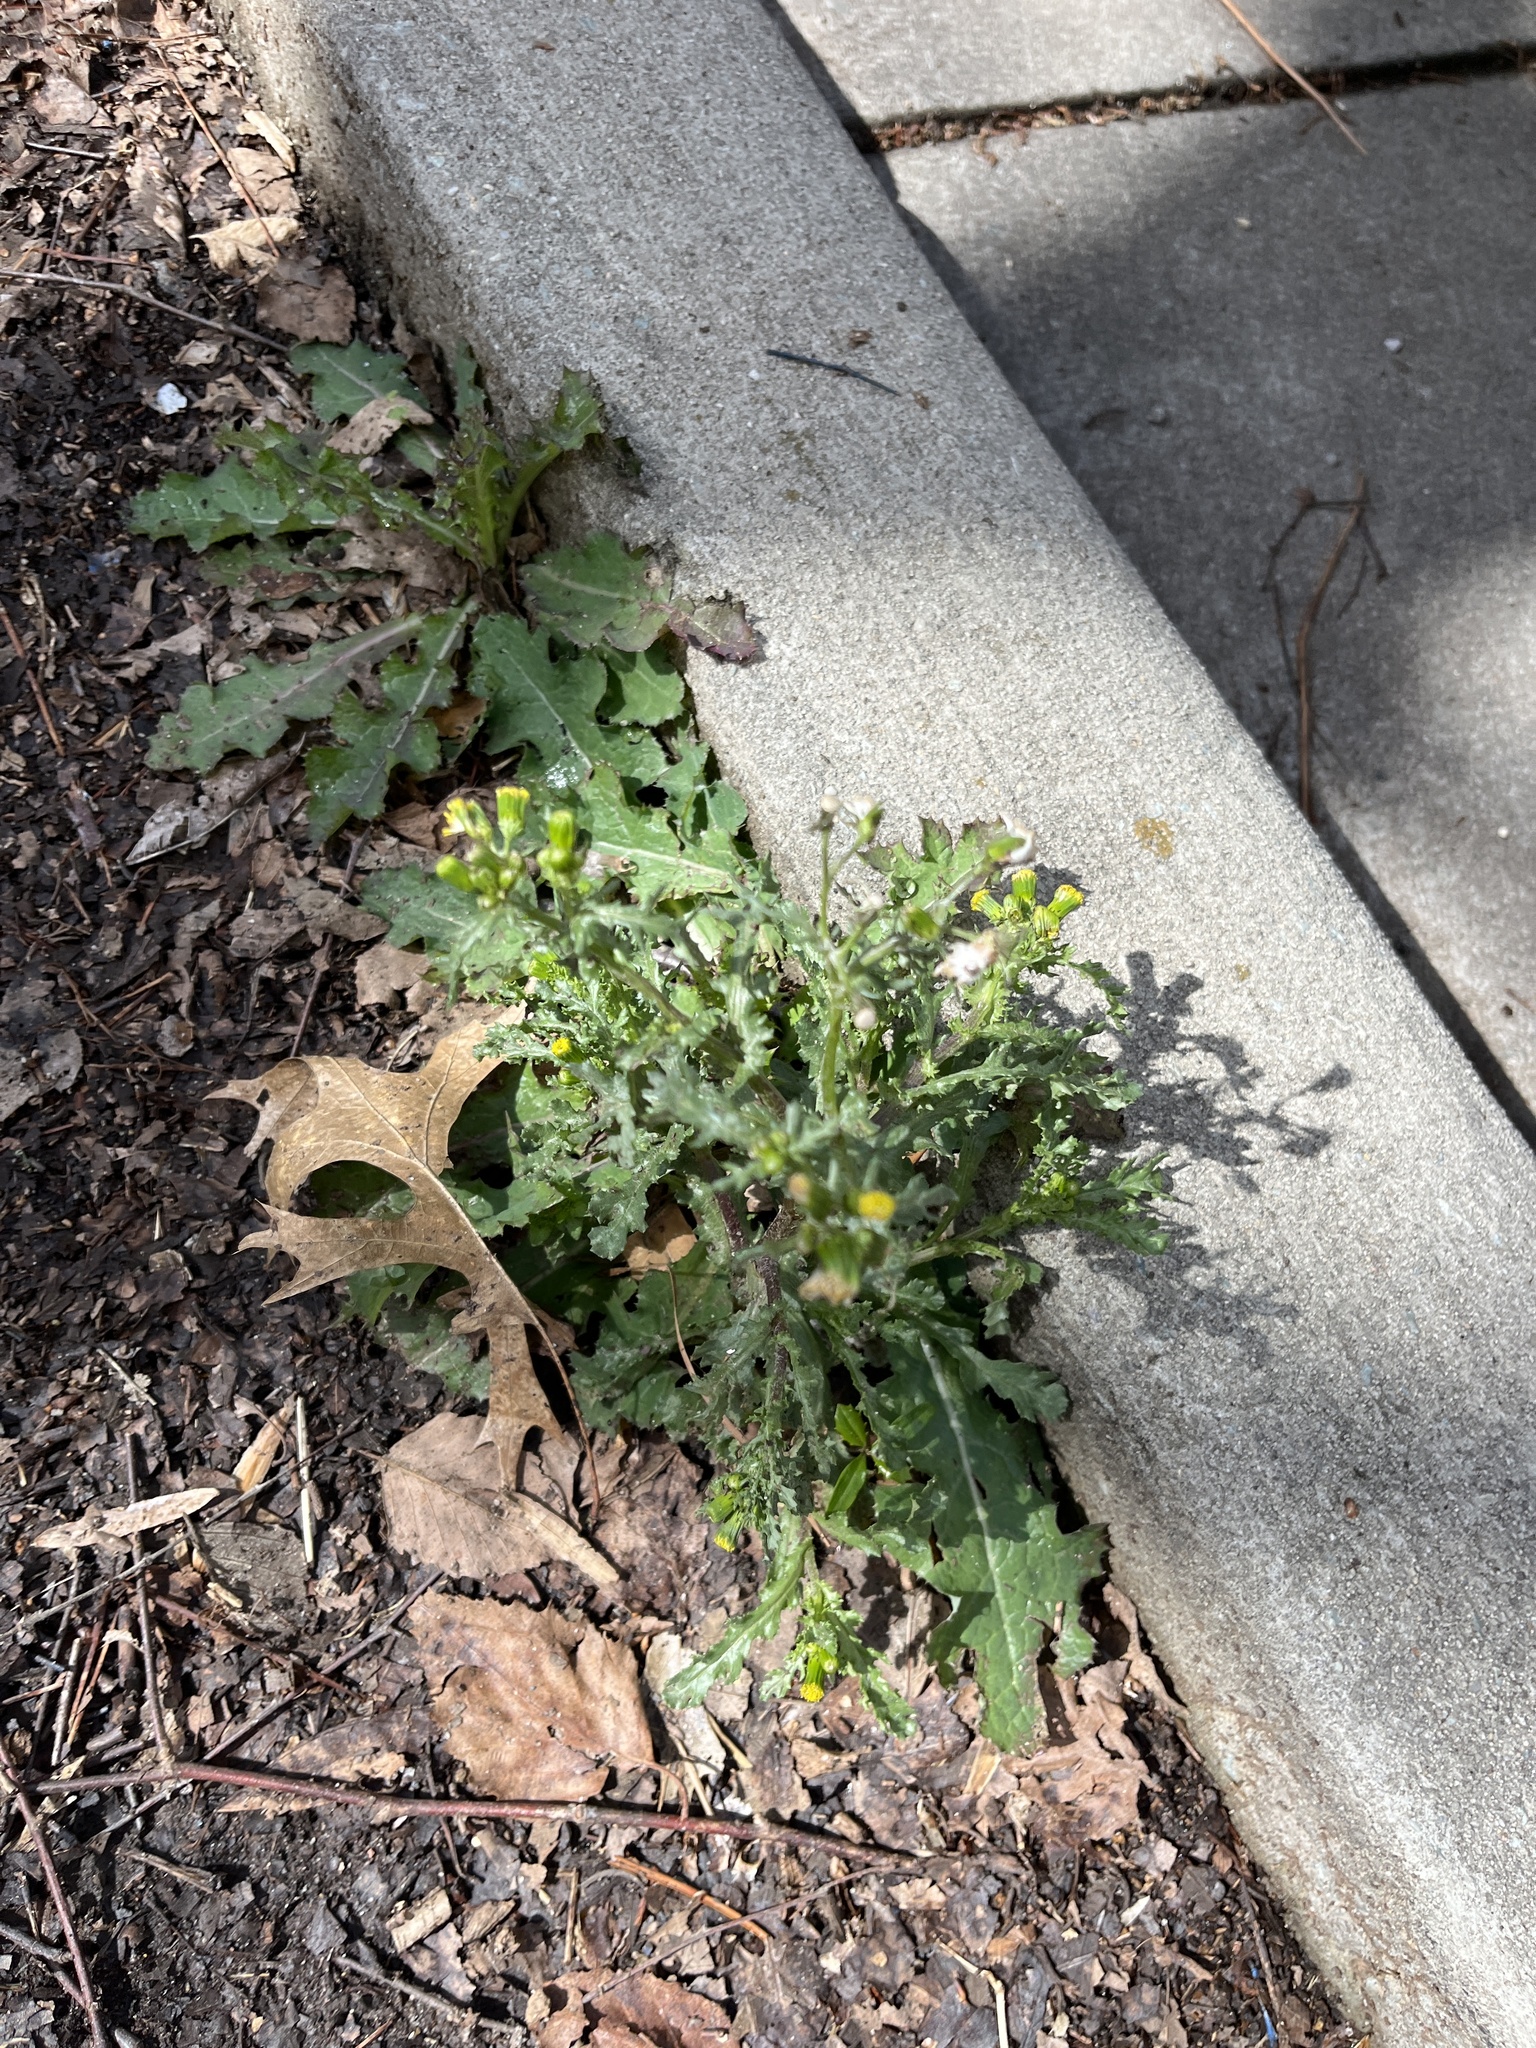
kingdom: Plantae
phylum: Tracheophyta
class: Magnoliopsida
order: Asterales
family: Asteraceae
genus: Senecio
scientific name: Senecio vulgaris
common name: Old-man-in-the-spring
